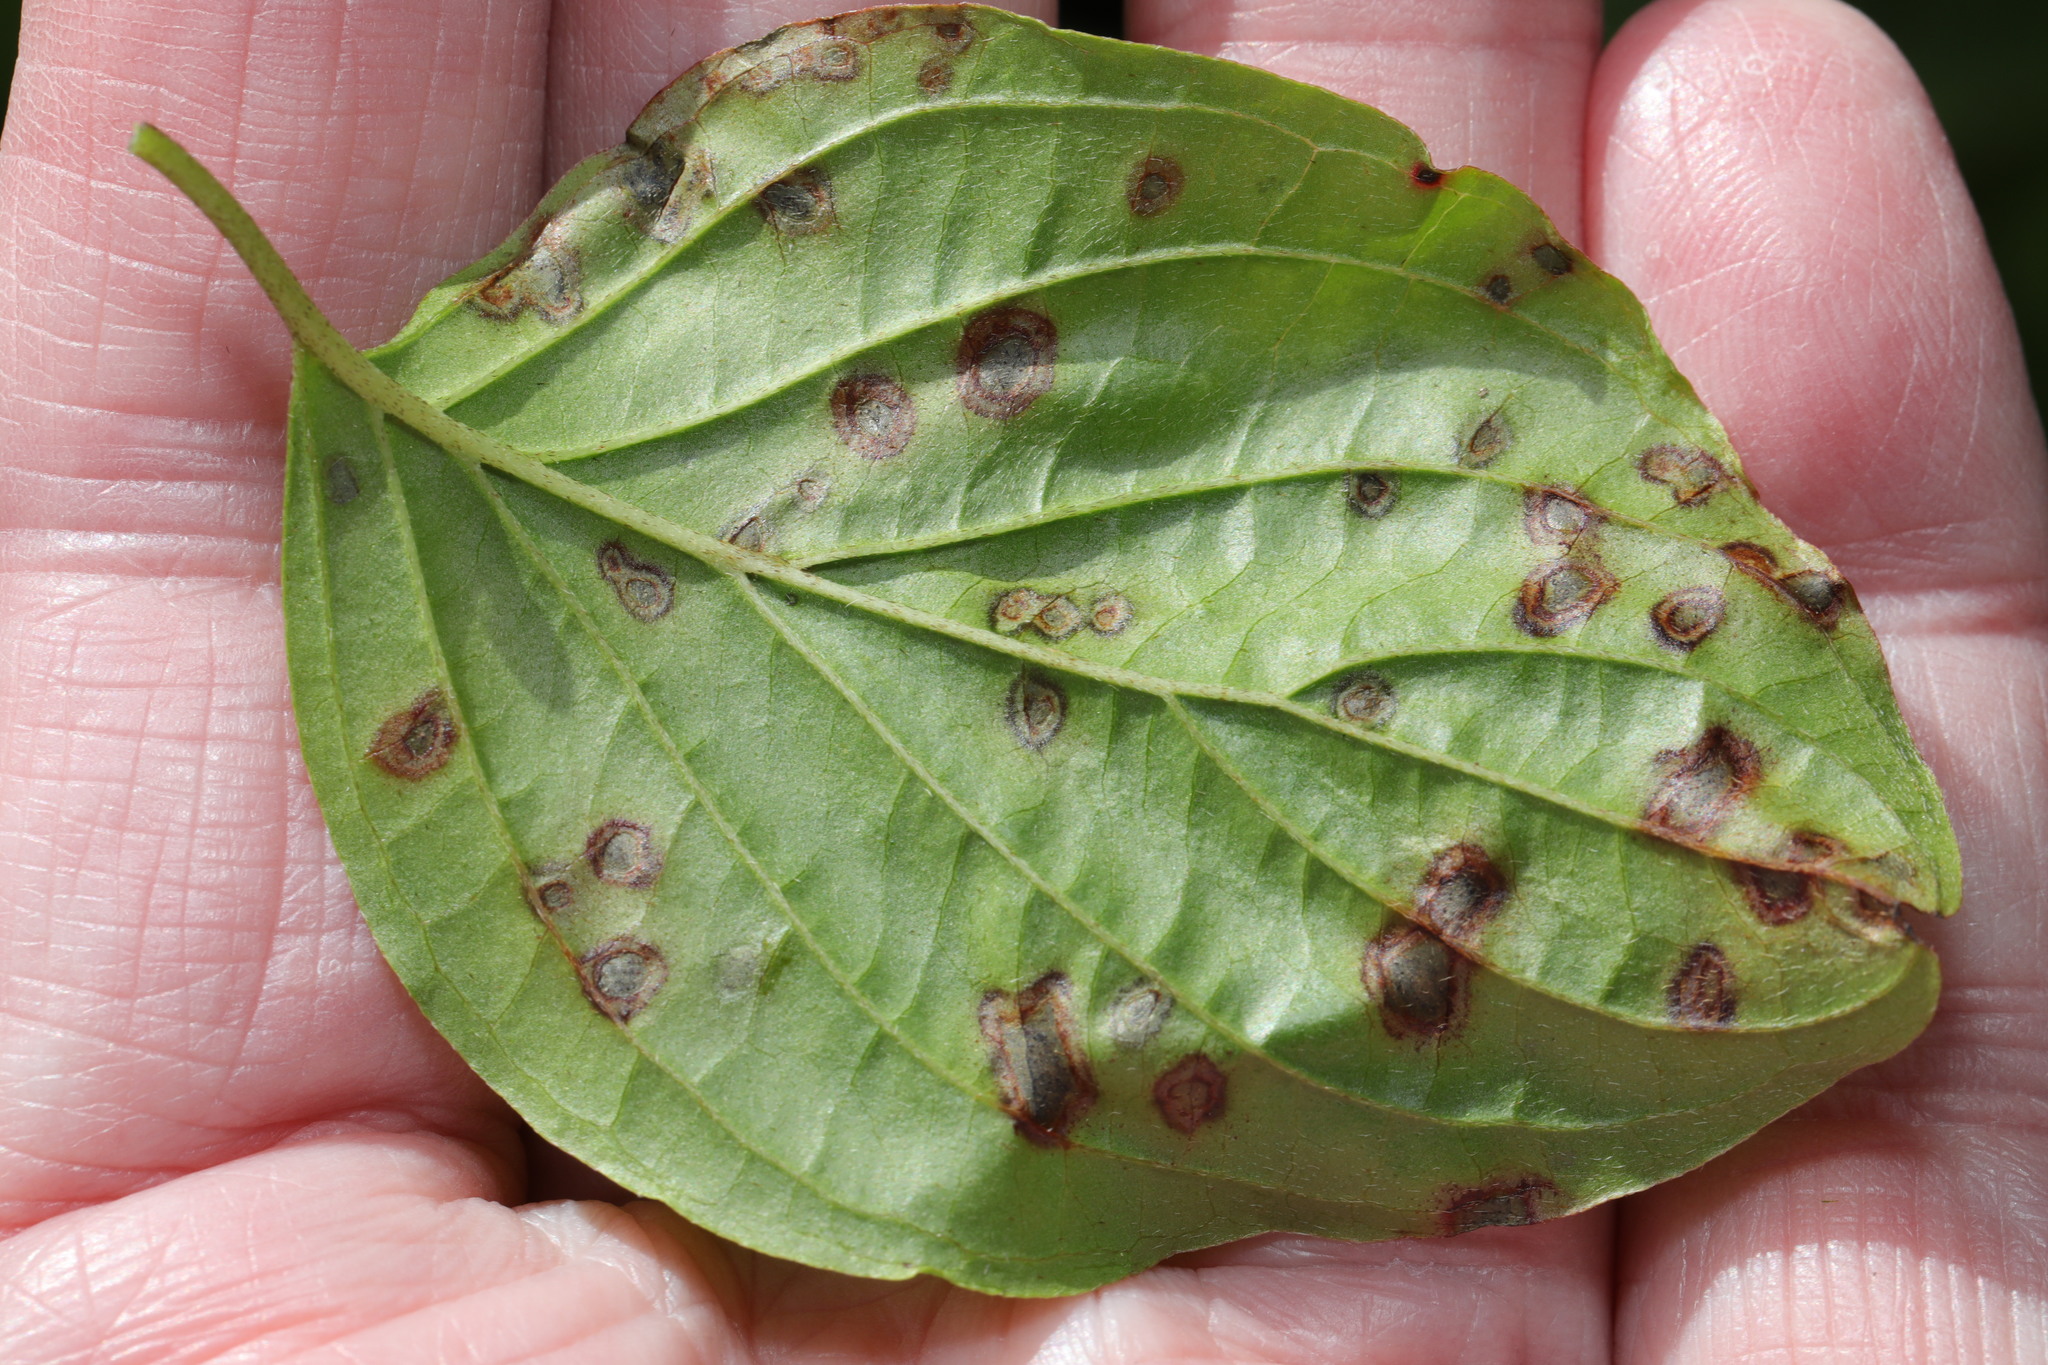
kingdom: Fungi
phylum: Ascomycota
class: Dothideomycetes
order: Mycosphaerellales
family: Mycosphaerellaceae
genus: Sphaerulina
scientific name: Sphaerulina cornicola
